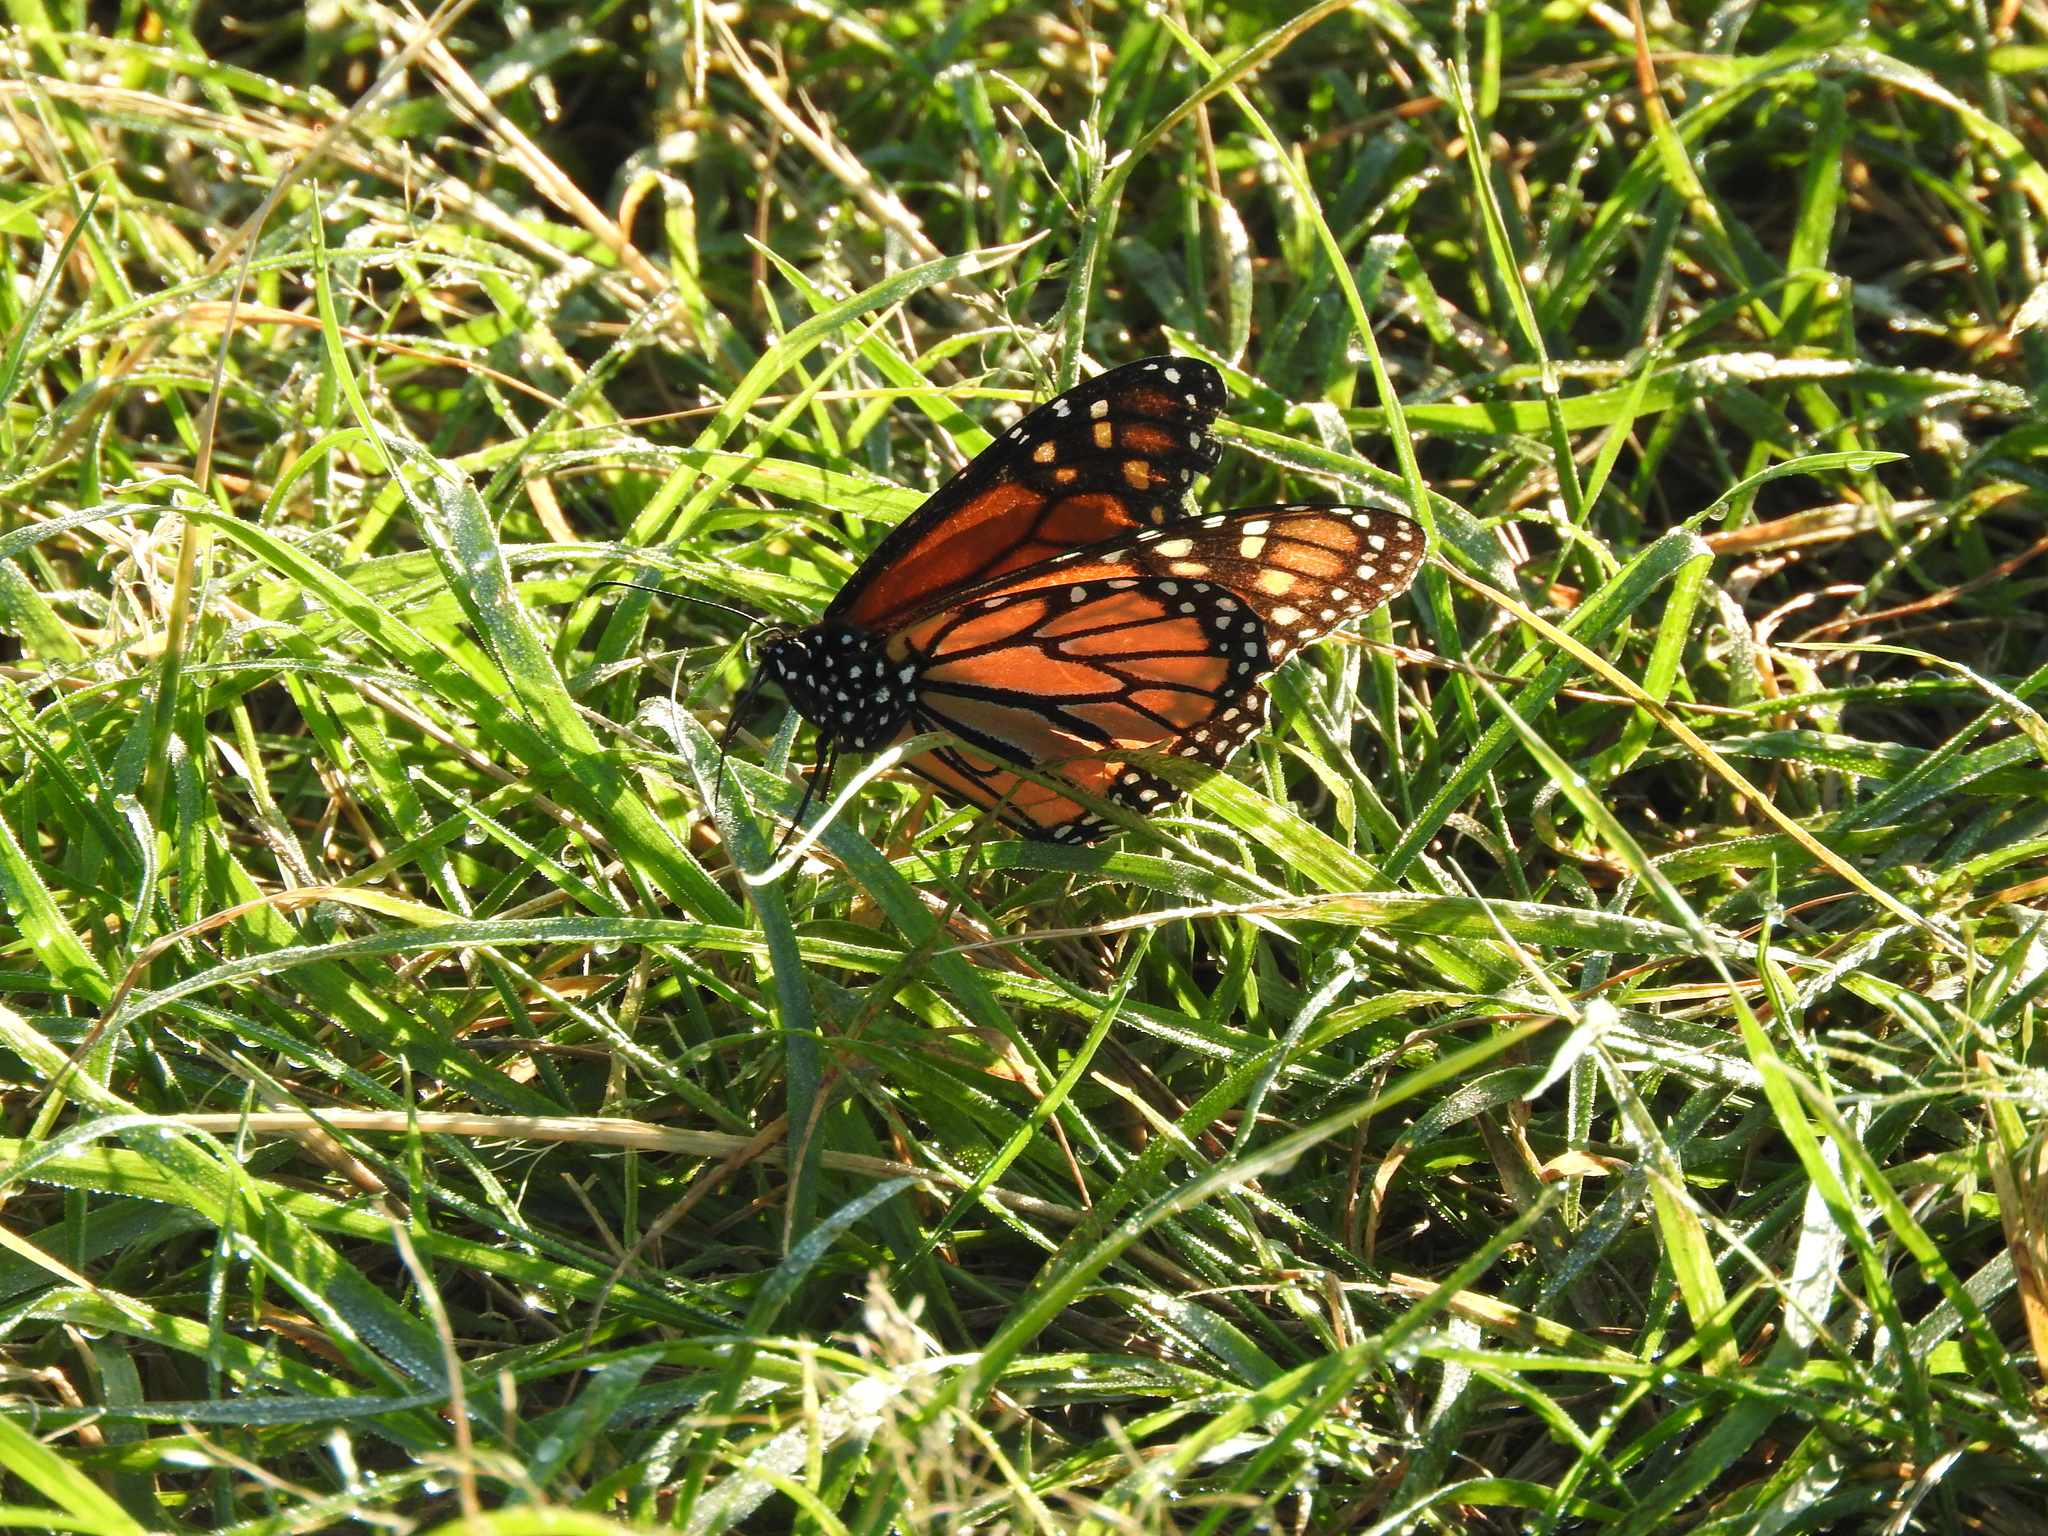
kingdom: Animalia
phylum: Arthropoda
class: Insecta
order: Lepidoptera
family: Nymphalidae
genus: Danaus
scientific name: Danaus plexippus
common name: Monarch
